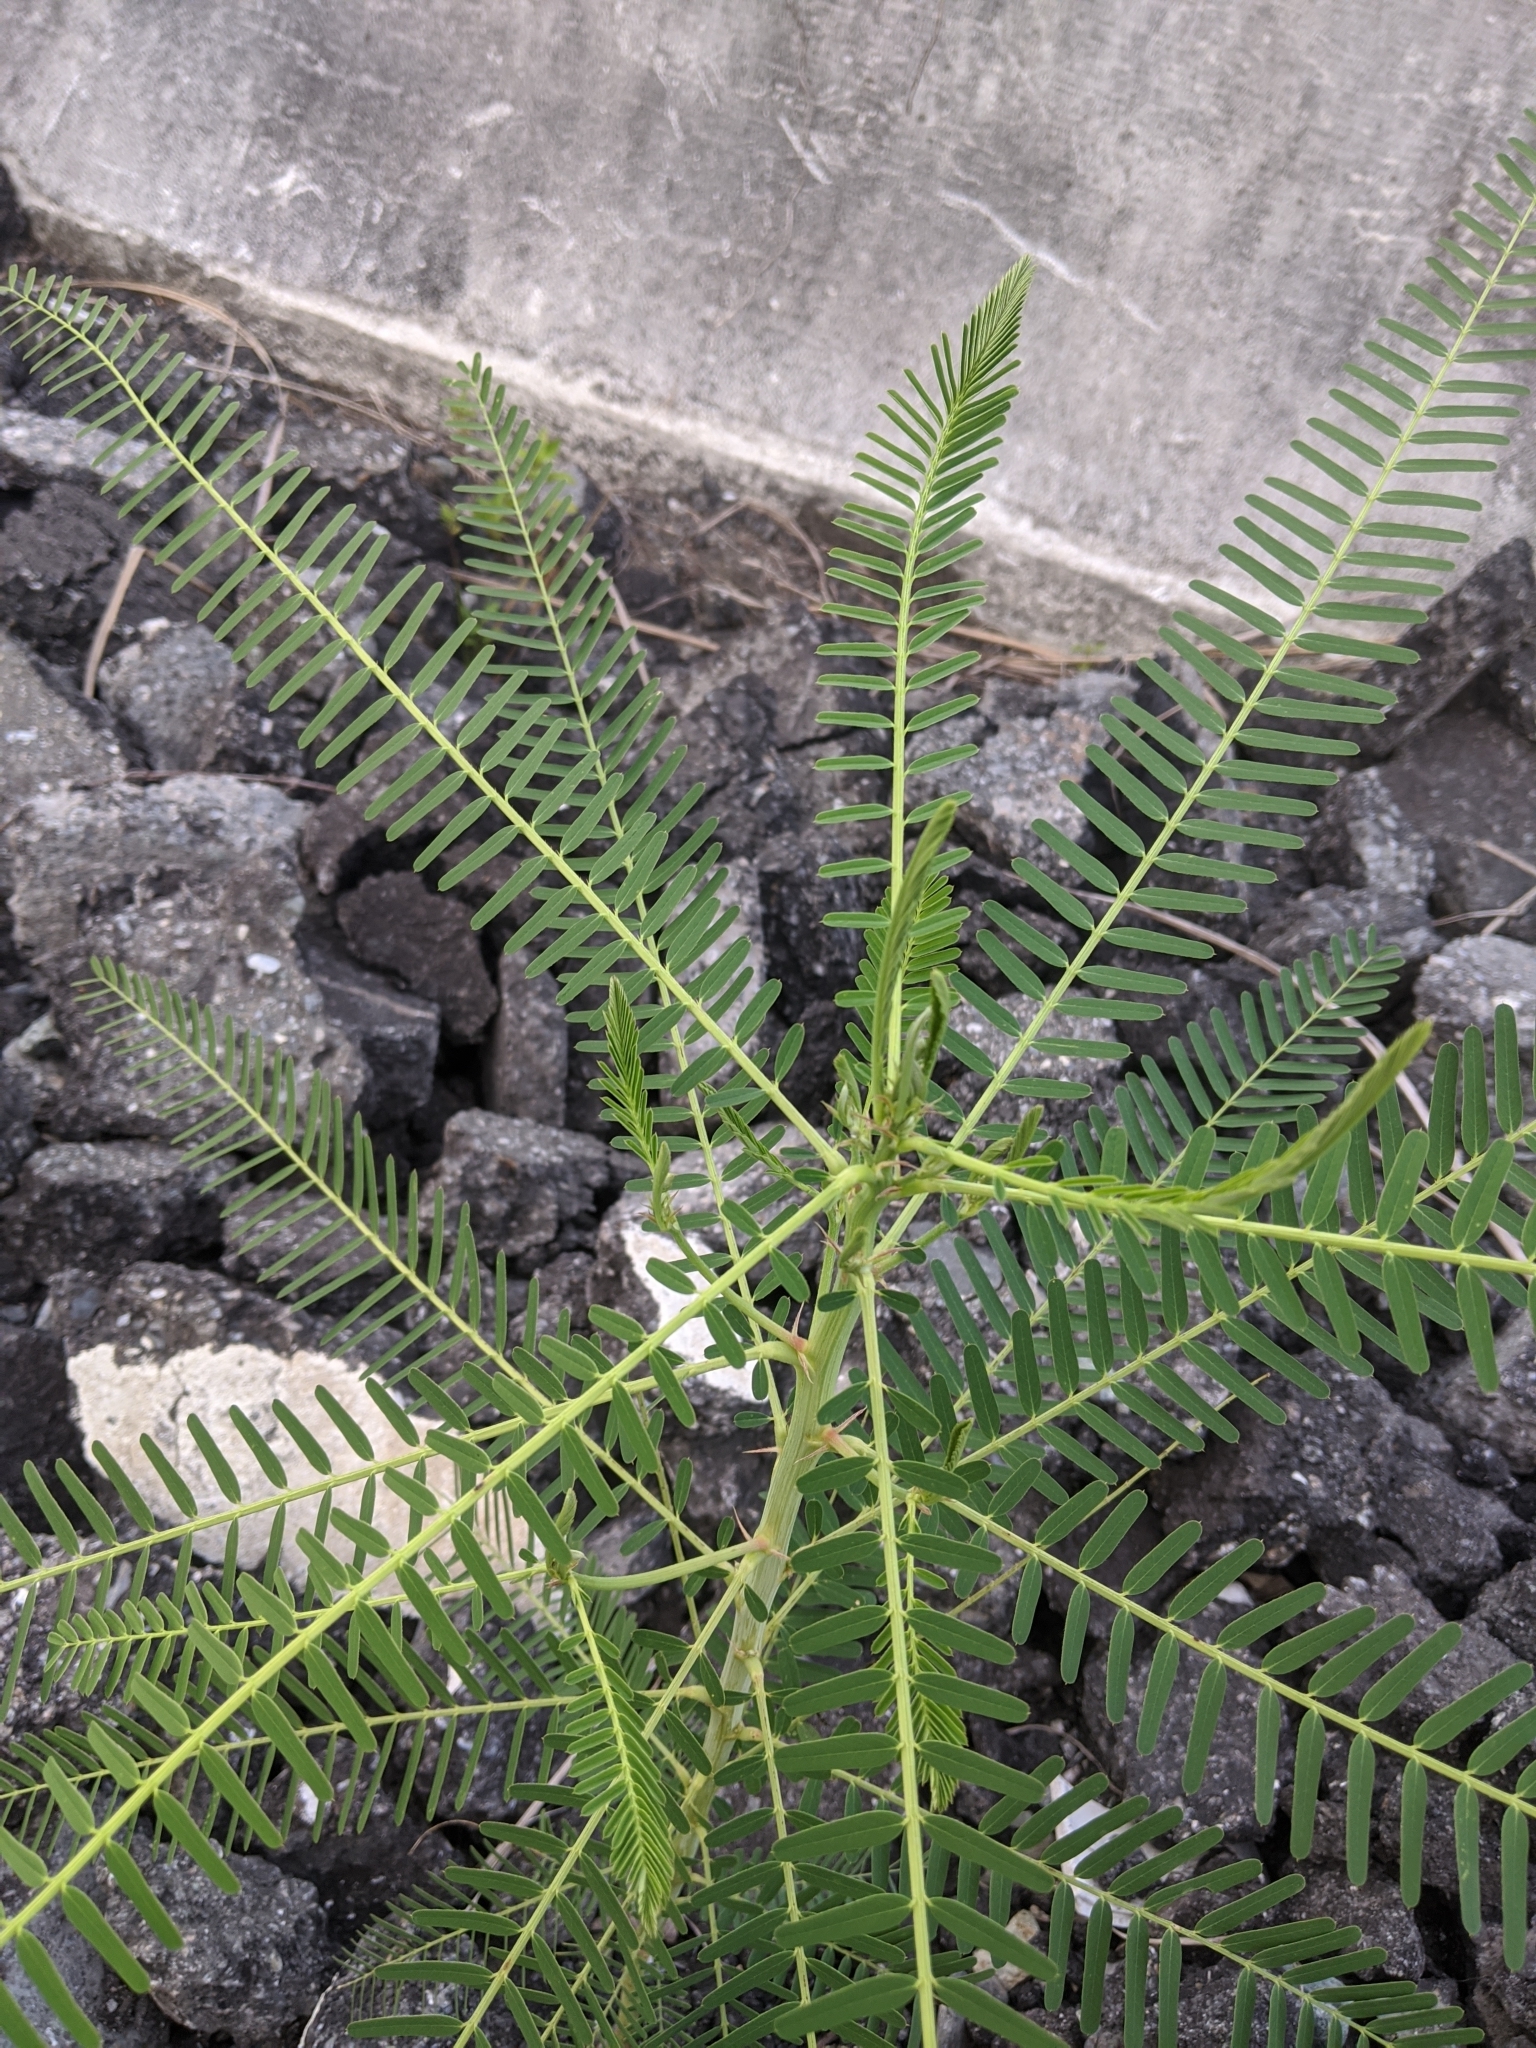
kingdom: Plantae
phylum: Tracheophyta
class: Magnoliopsida
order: Fabales
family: Fabaceae
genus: Sesbania
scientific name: Sesbania cannabina
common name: Canicha
